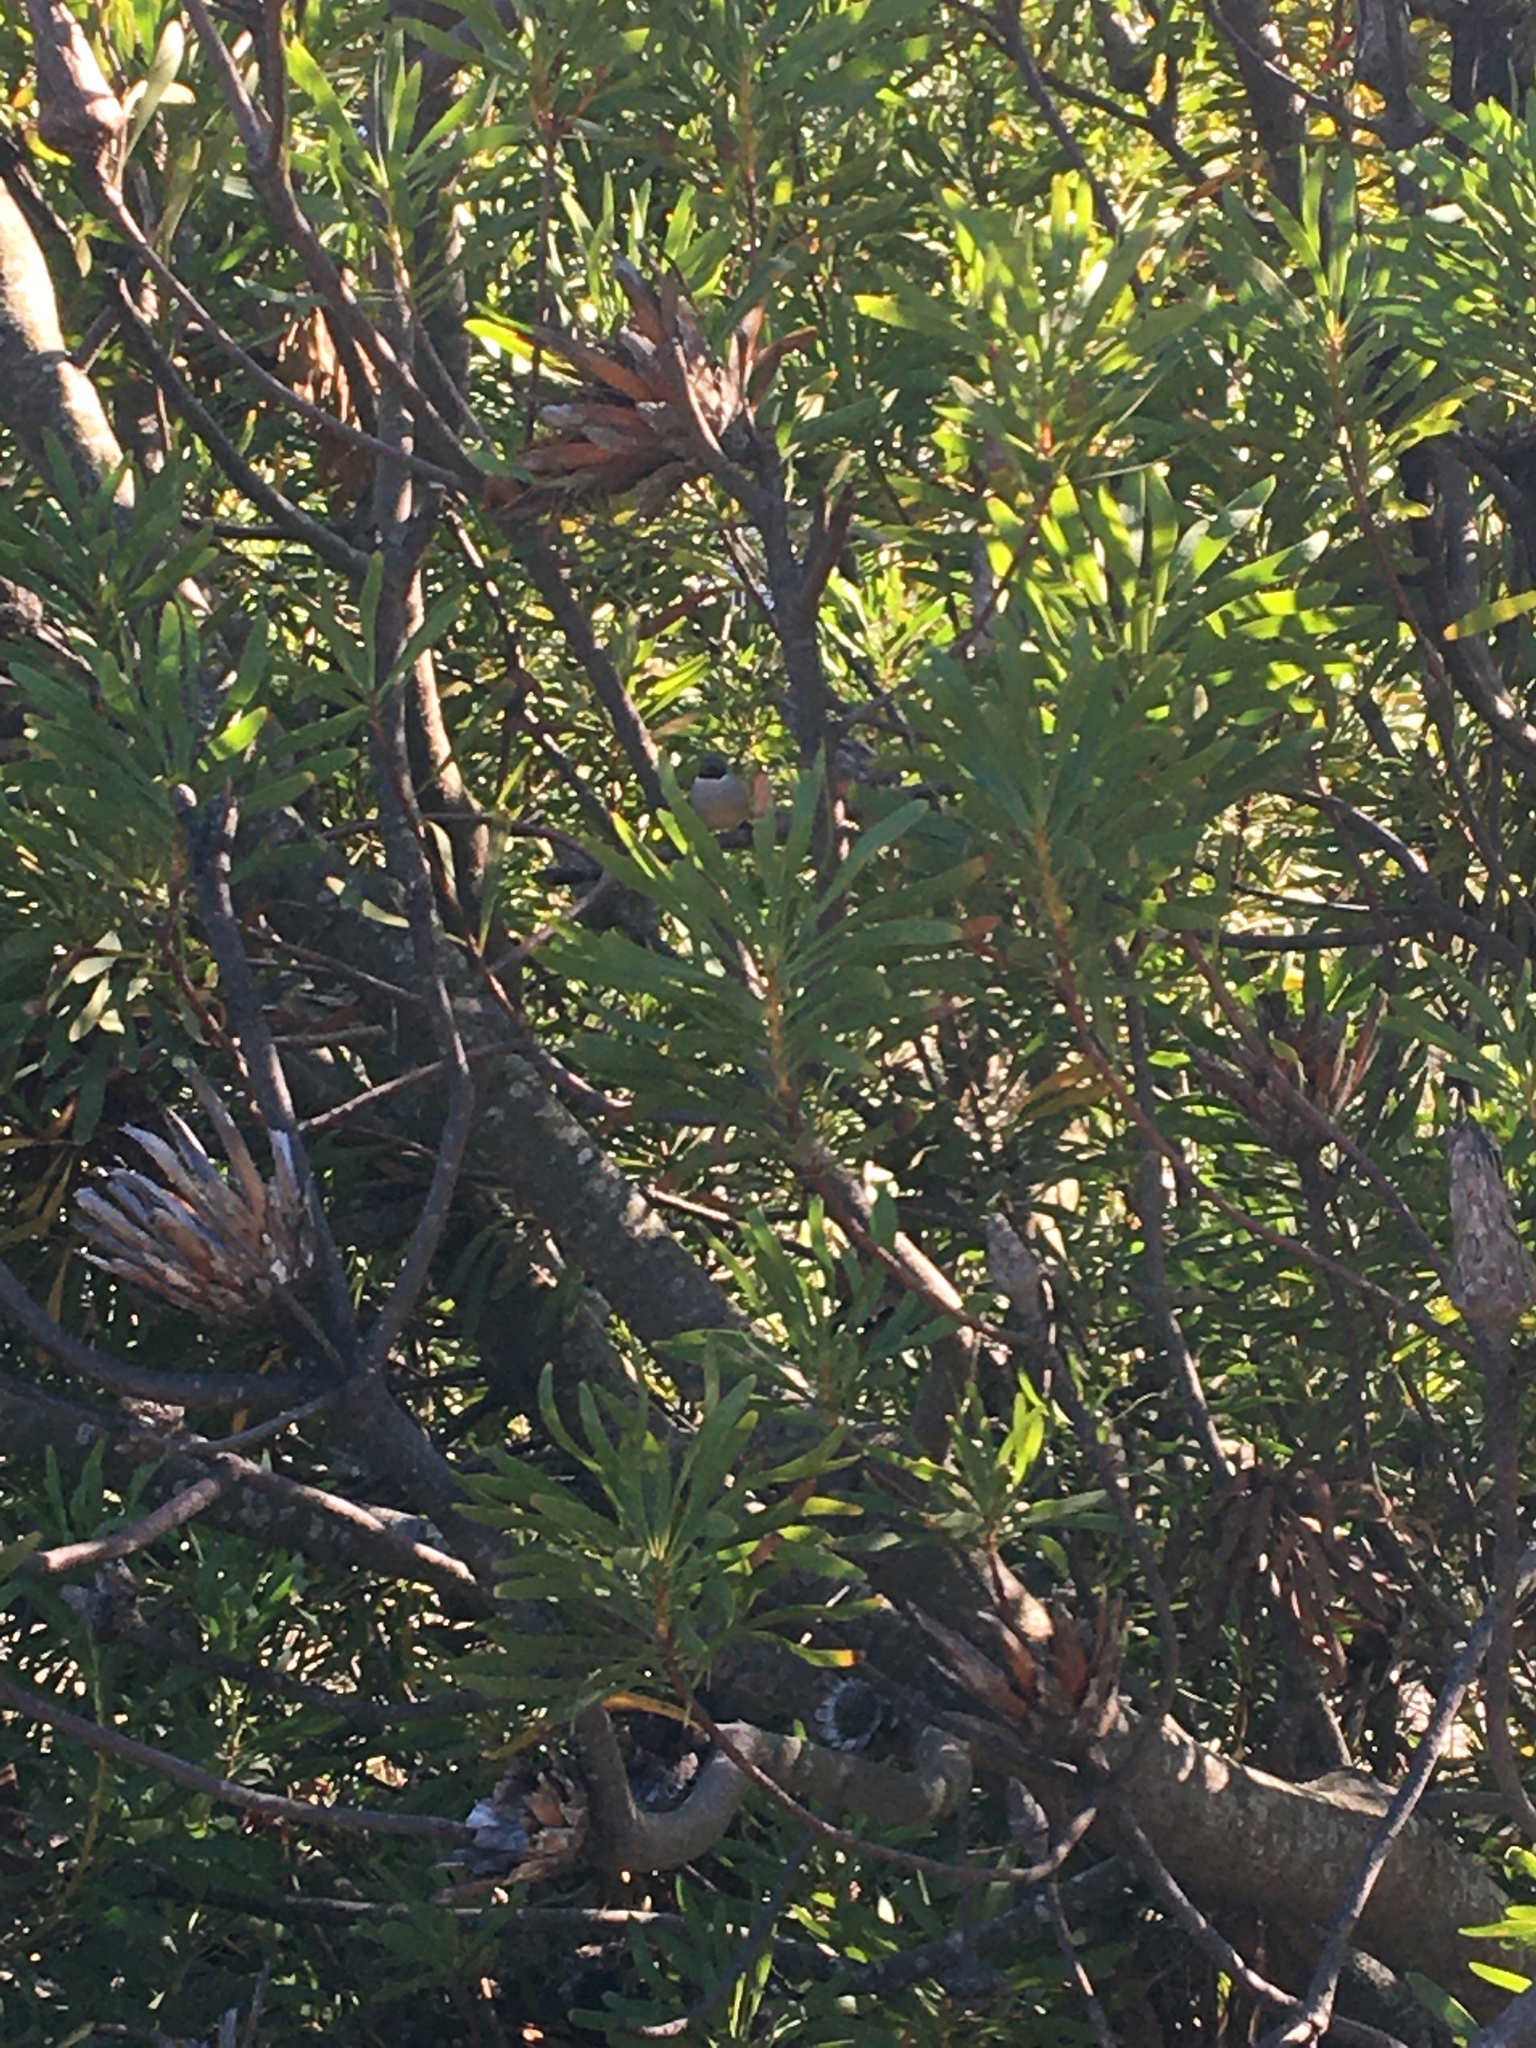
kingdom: Animalia
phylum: Chordata
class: Aves
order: Passeriformes
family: Estrildidae
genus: Coccopygia
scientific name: Coccopygia melanotis
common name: Swee waxbill
